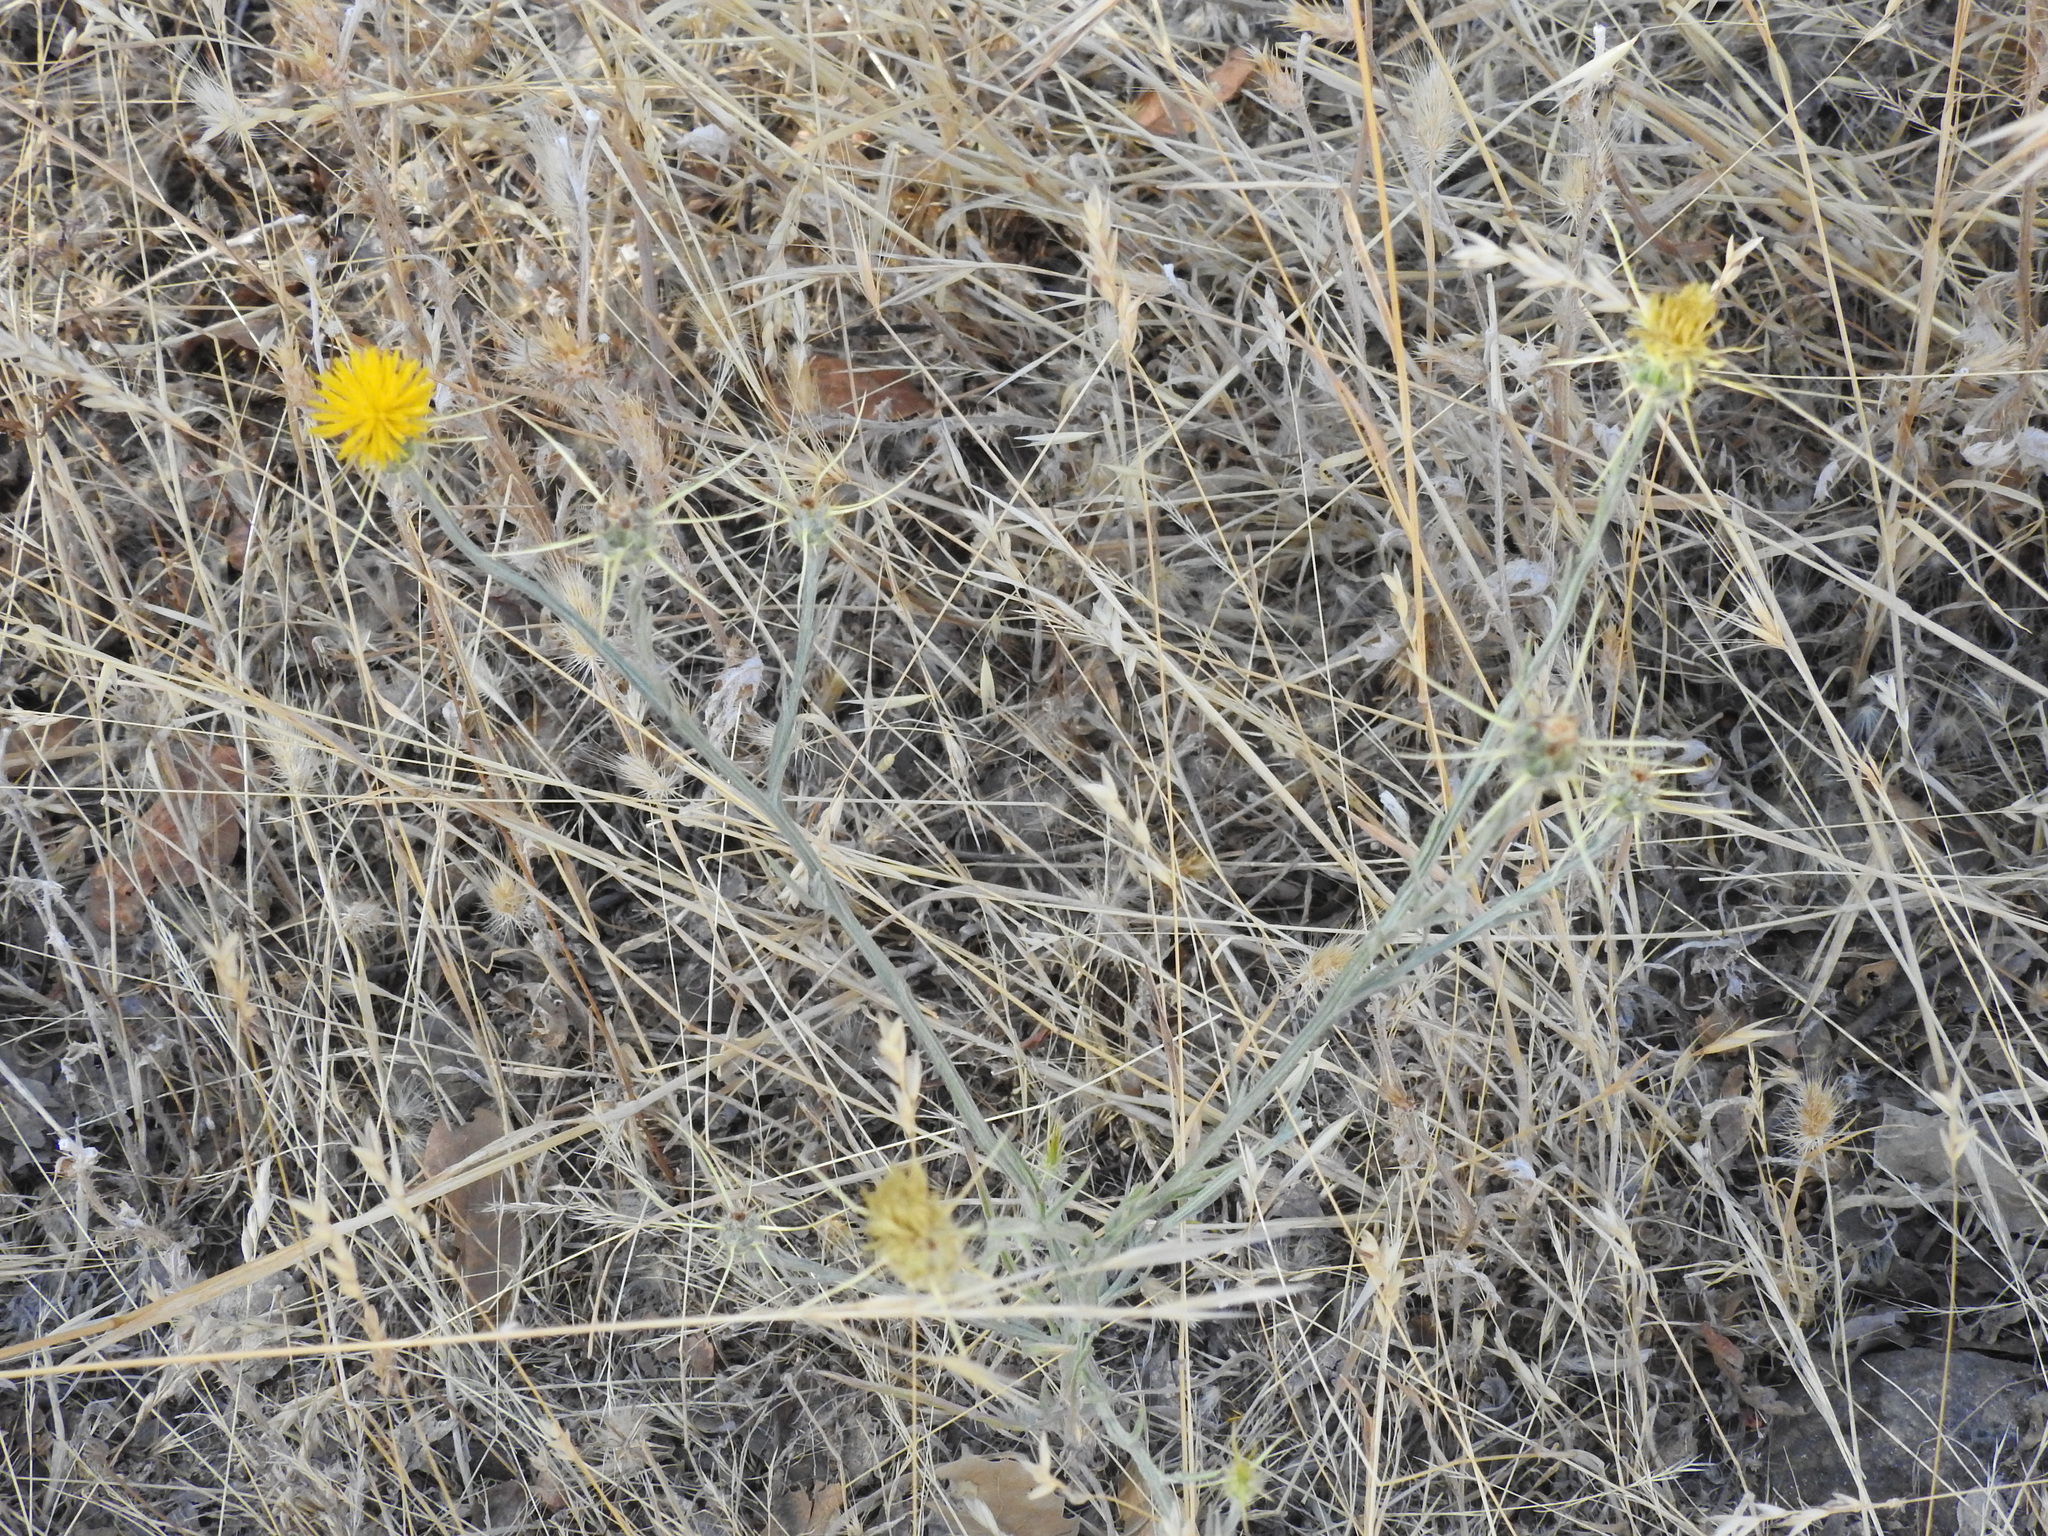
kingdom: Plantae
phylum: Tracheophyta
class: Magnoliopsida
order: Asterales
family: Asteraceae
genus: Centaurea
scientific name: Centaurea solstitialis
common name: Yellow star-thistle
